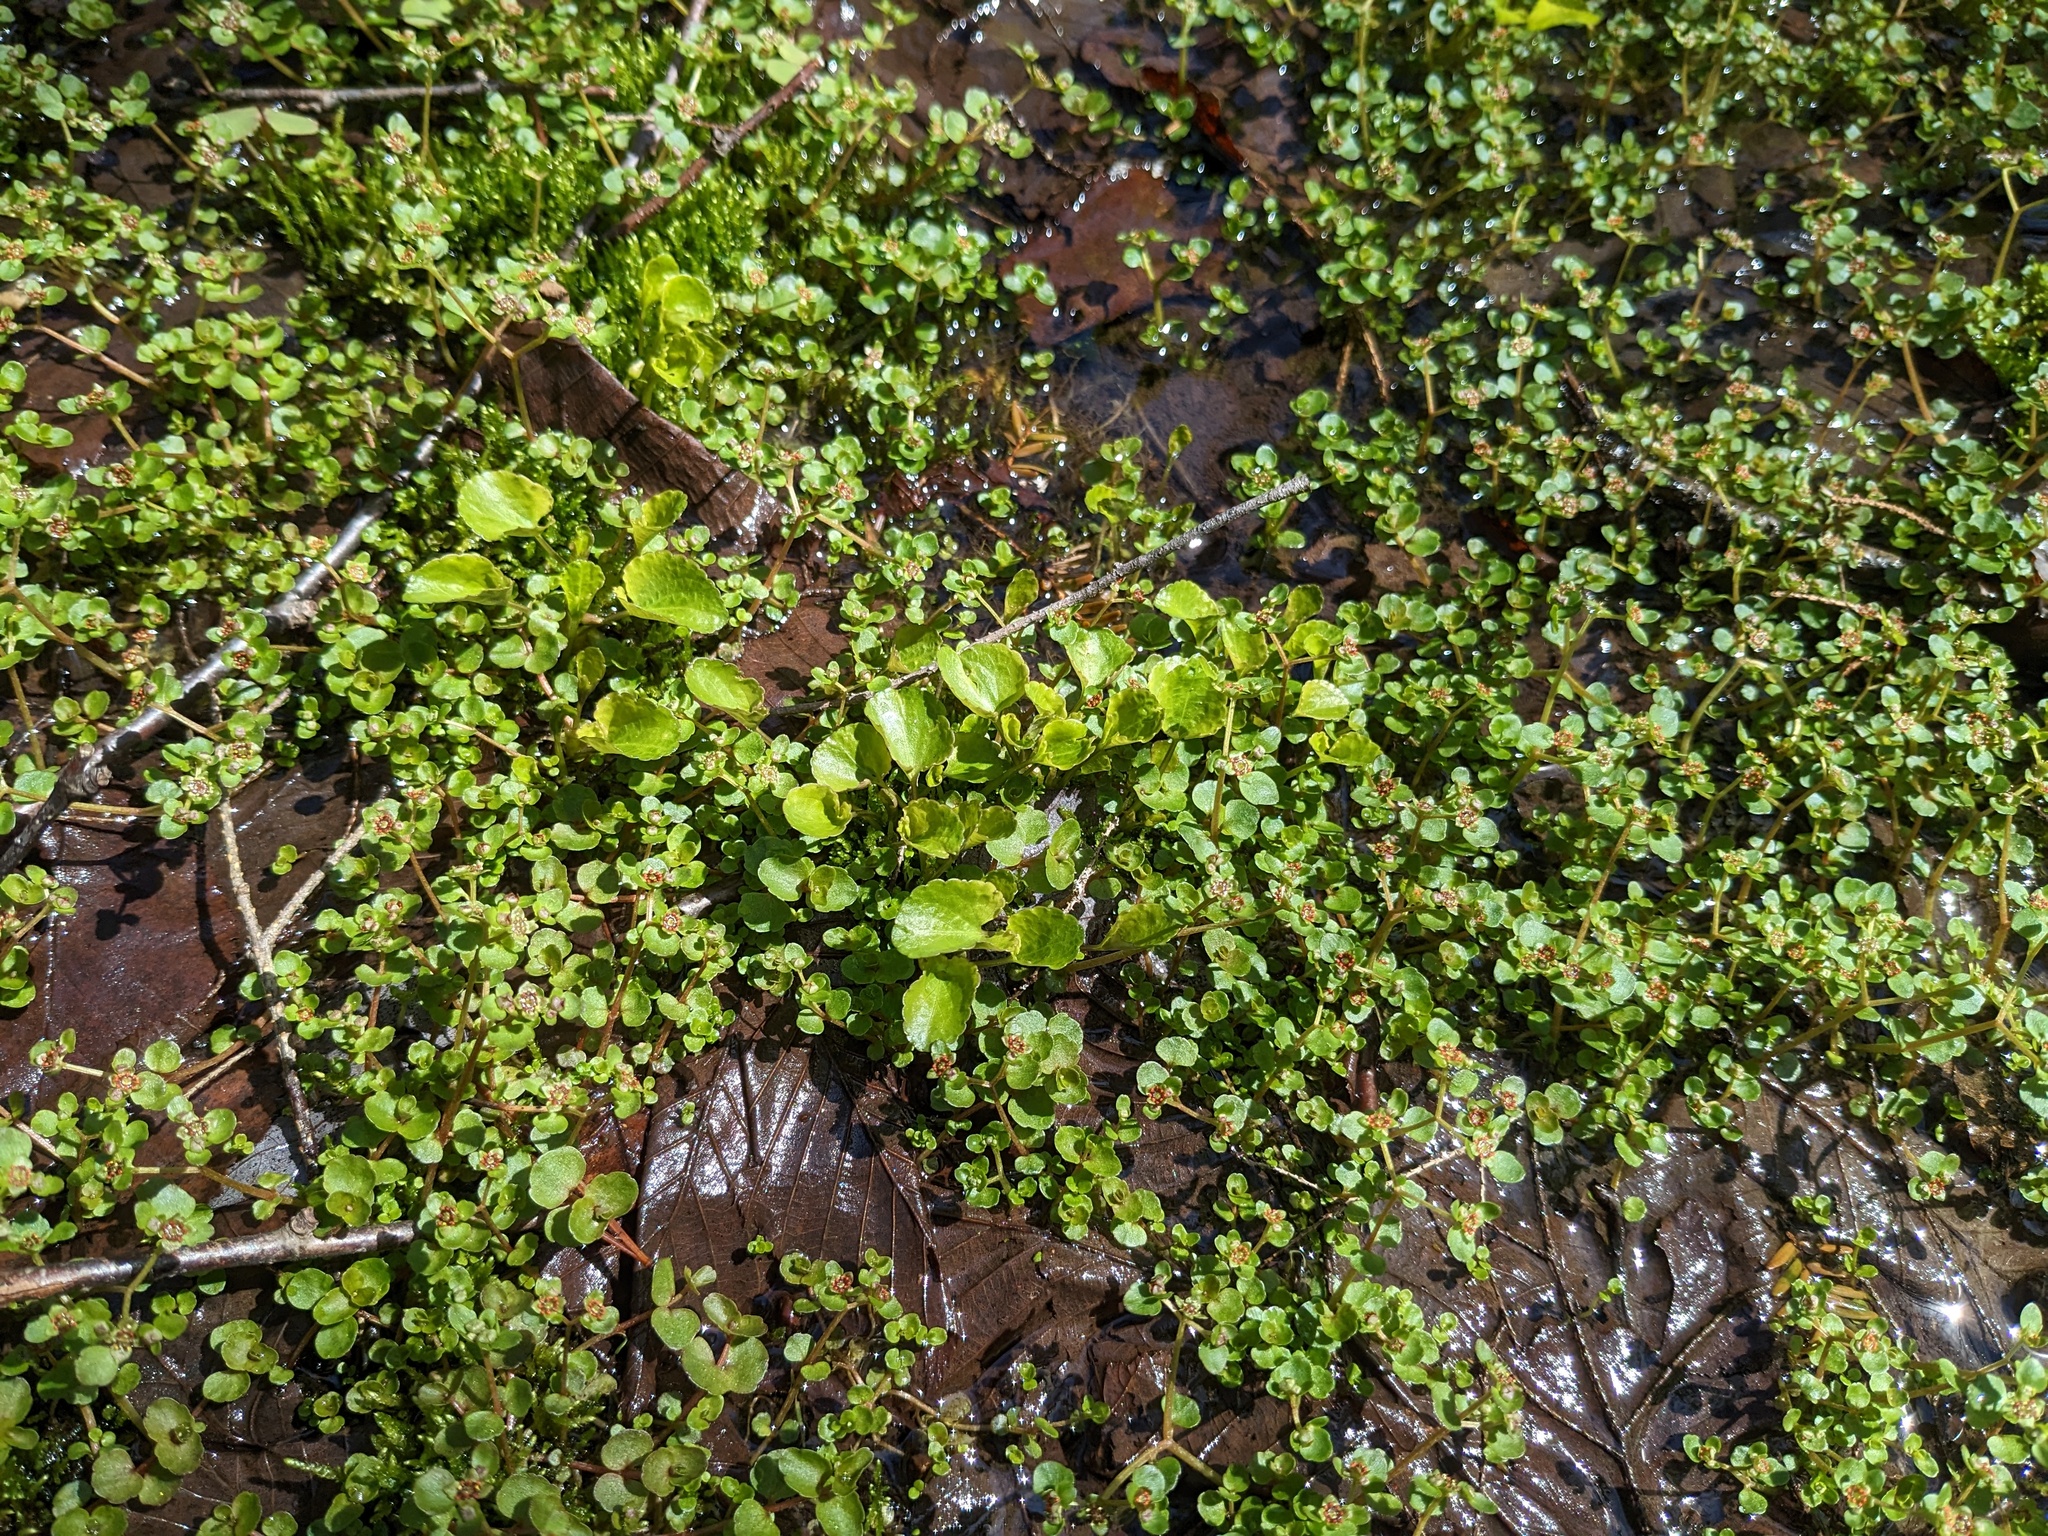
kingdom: Plantae
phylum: Tracheophyta
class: Magnoliopsida
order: Saxifragales
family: Saxifragaceae
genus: Chrysosplenium
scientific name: Chrysosplenium americanum
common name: American golden-saxifrage
